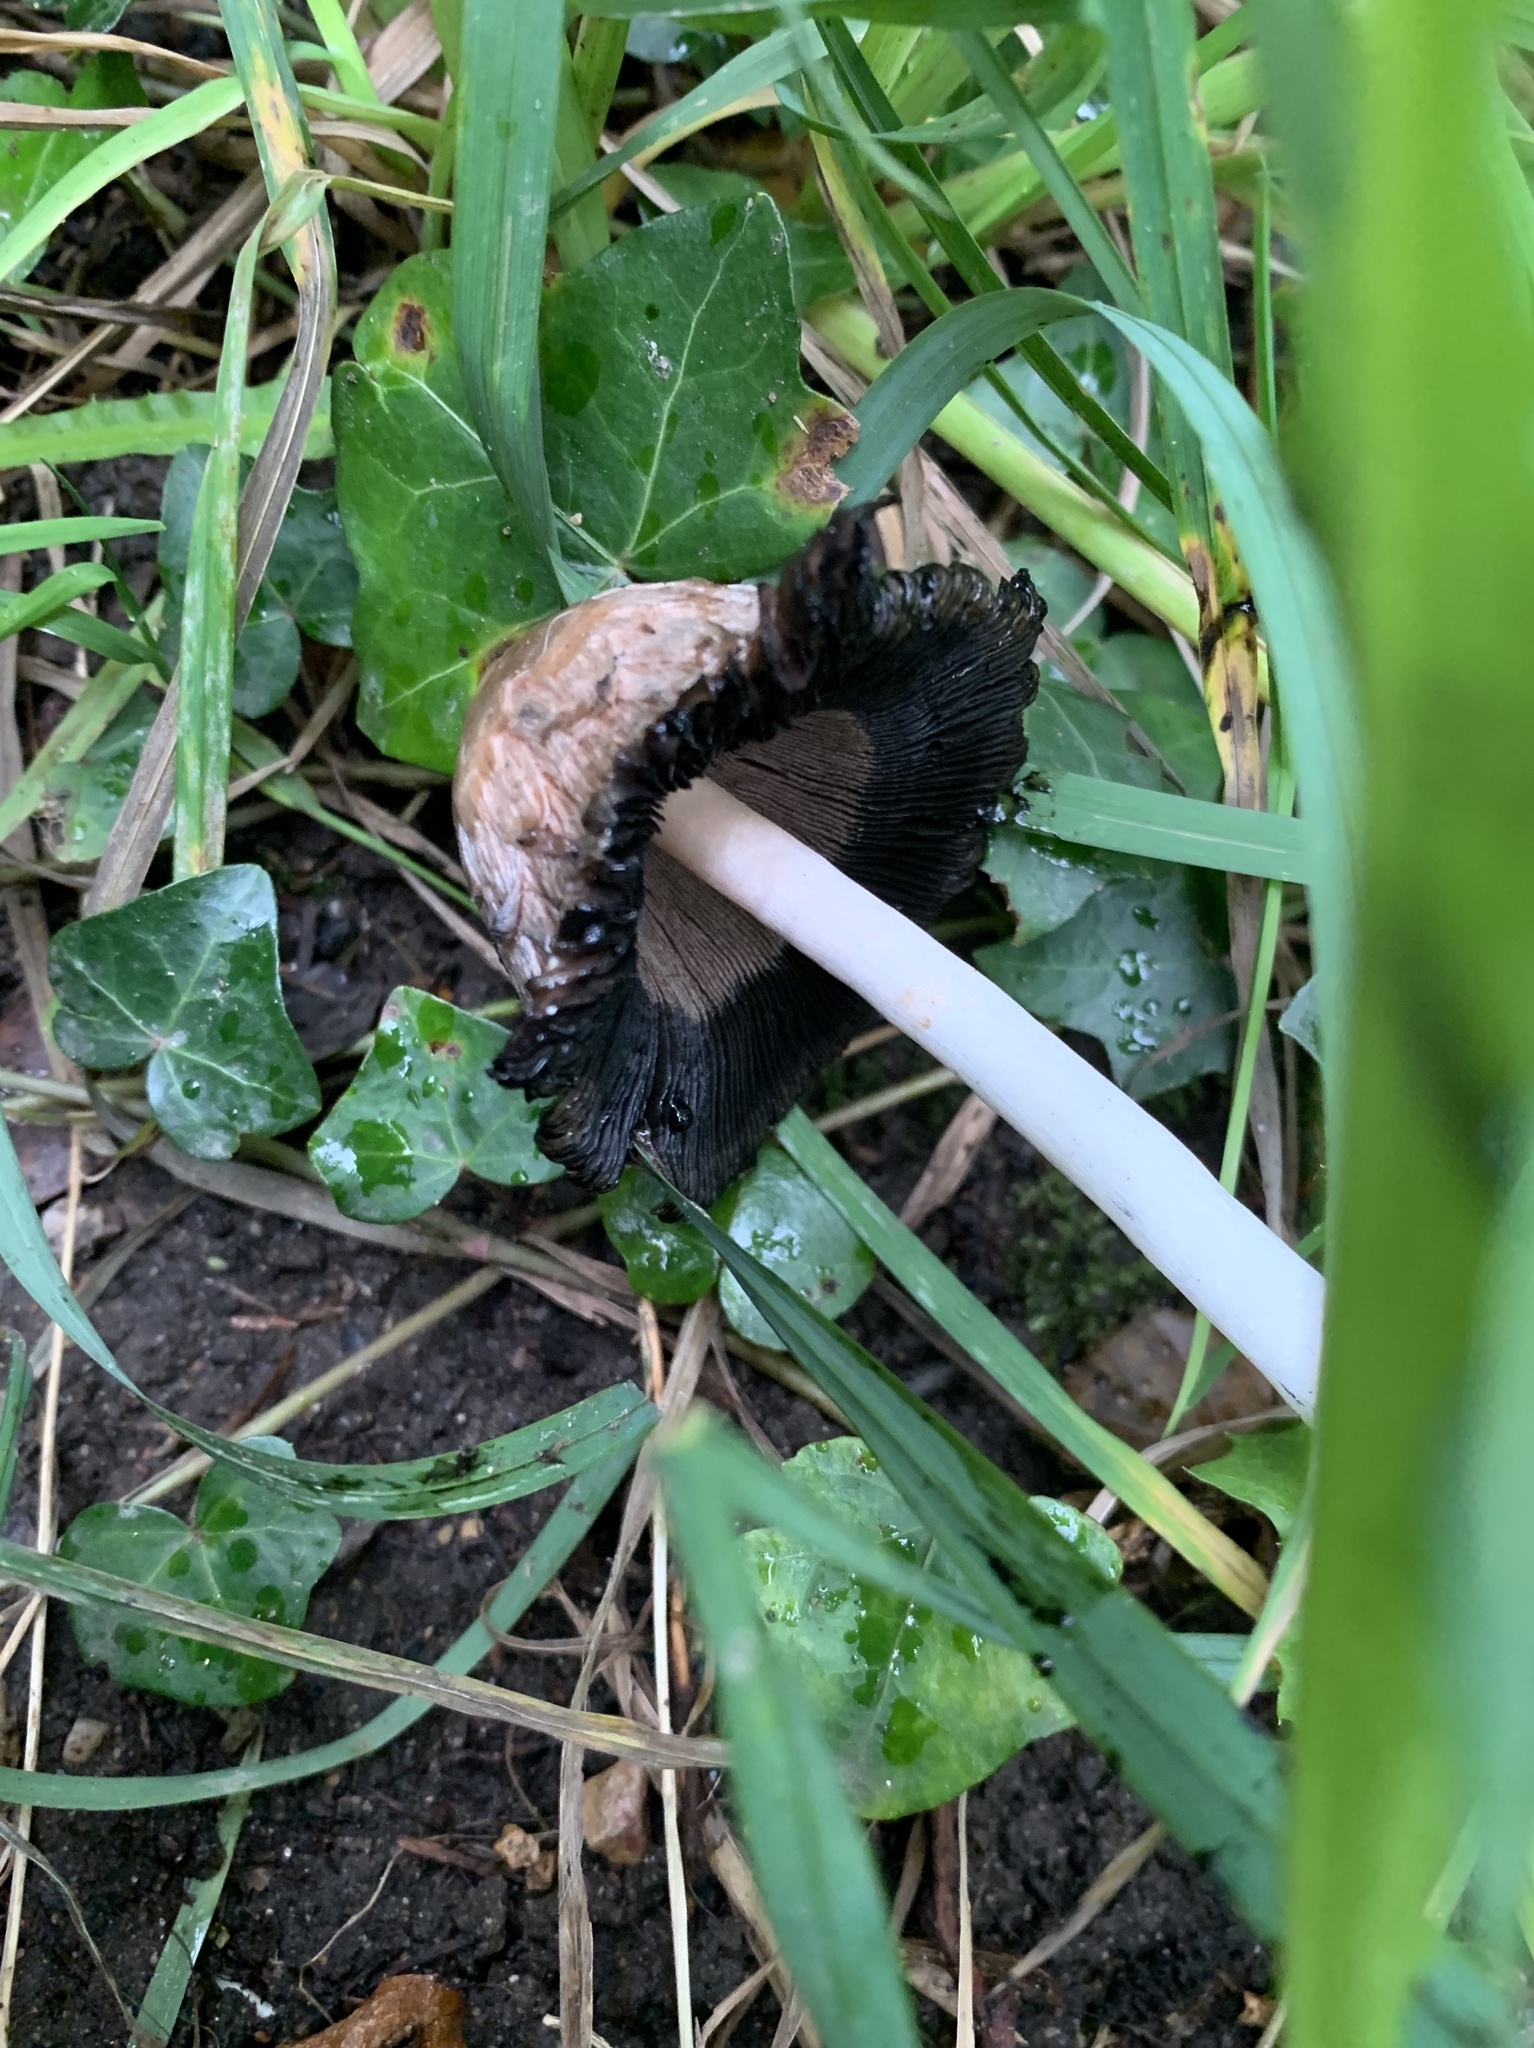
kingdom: Fungi
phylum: Basidiomycota
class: Agaricomycetes
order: Agaricales
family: Agaricaceae
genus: Coprinus
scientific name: Coprinus comatus
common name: Lawyer's wig
